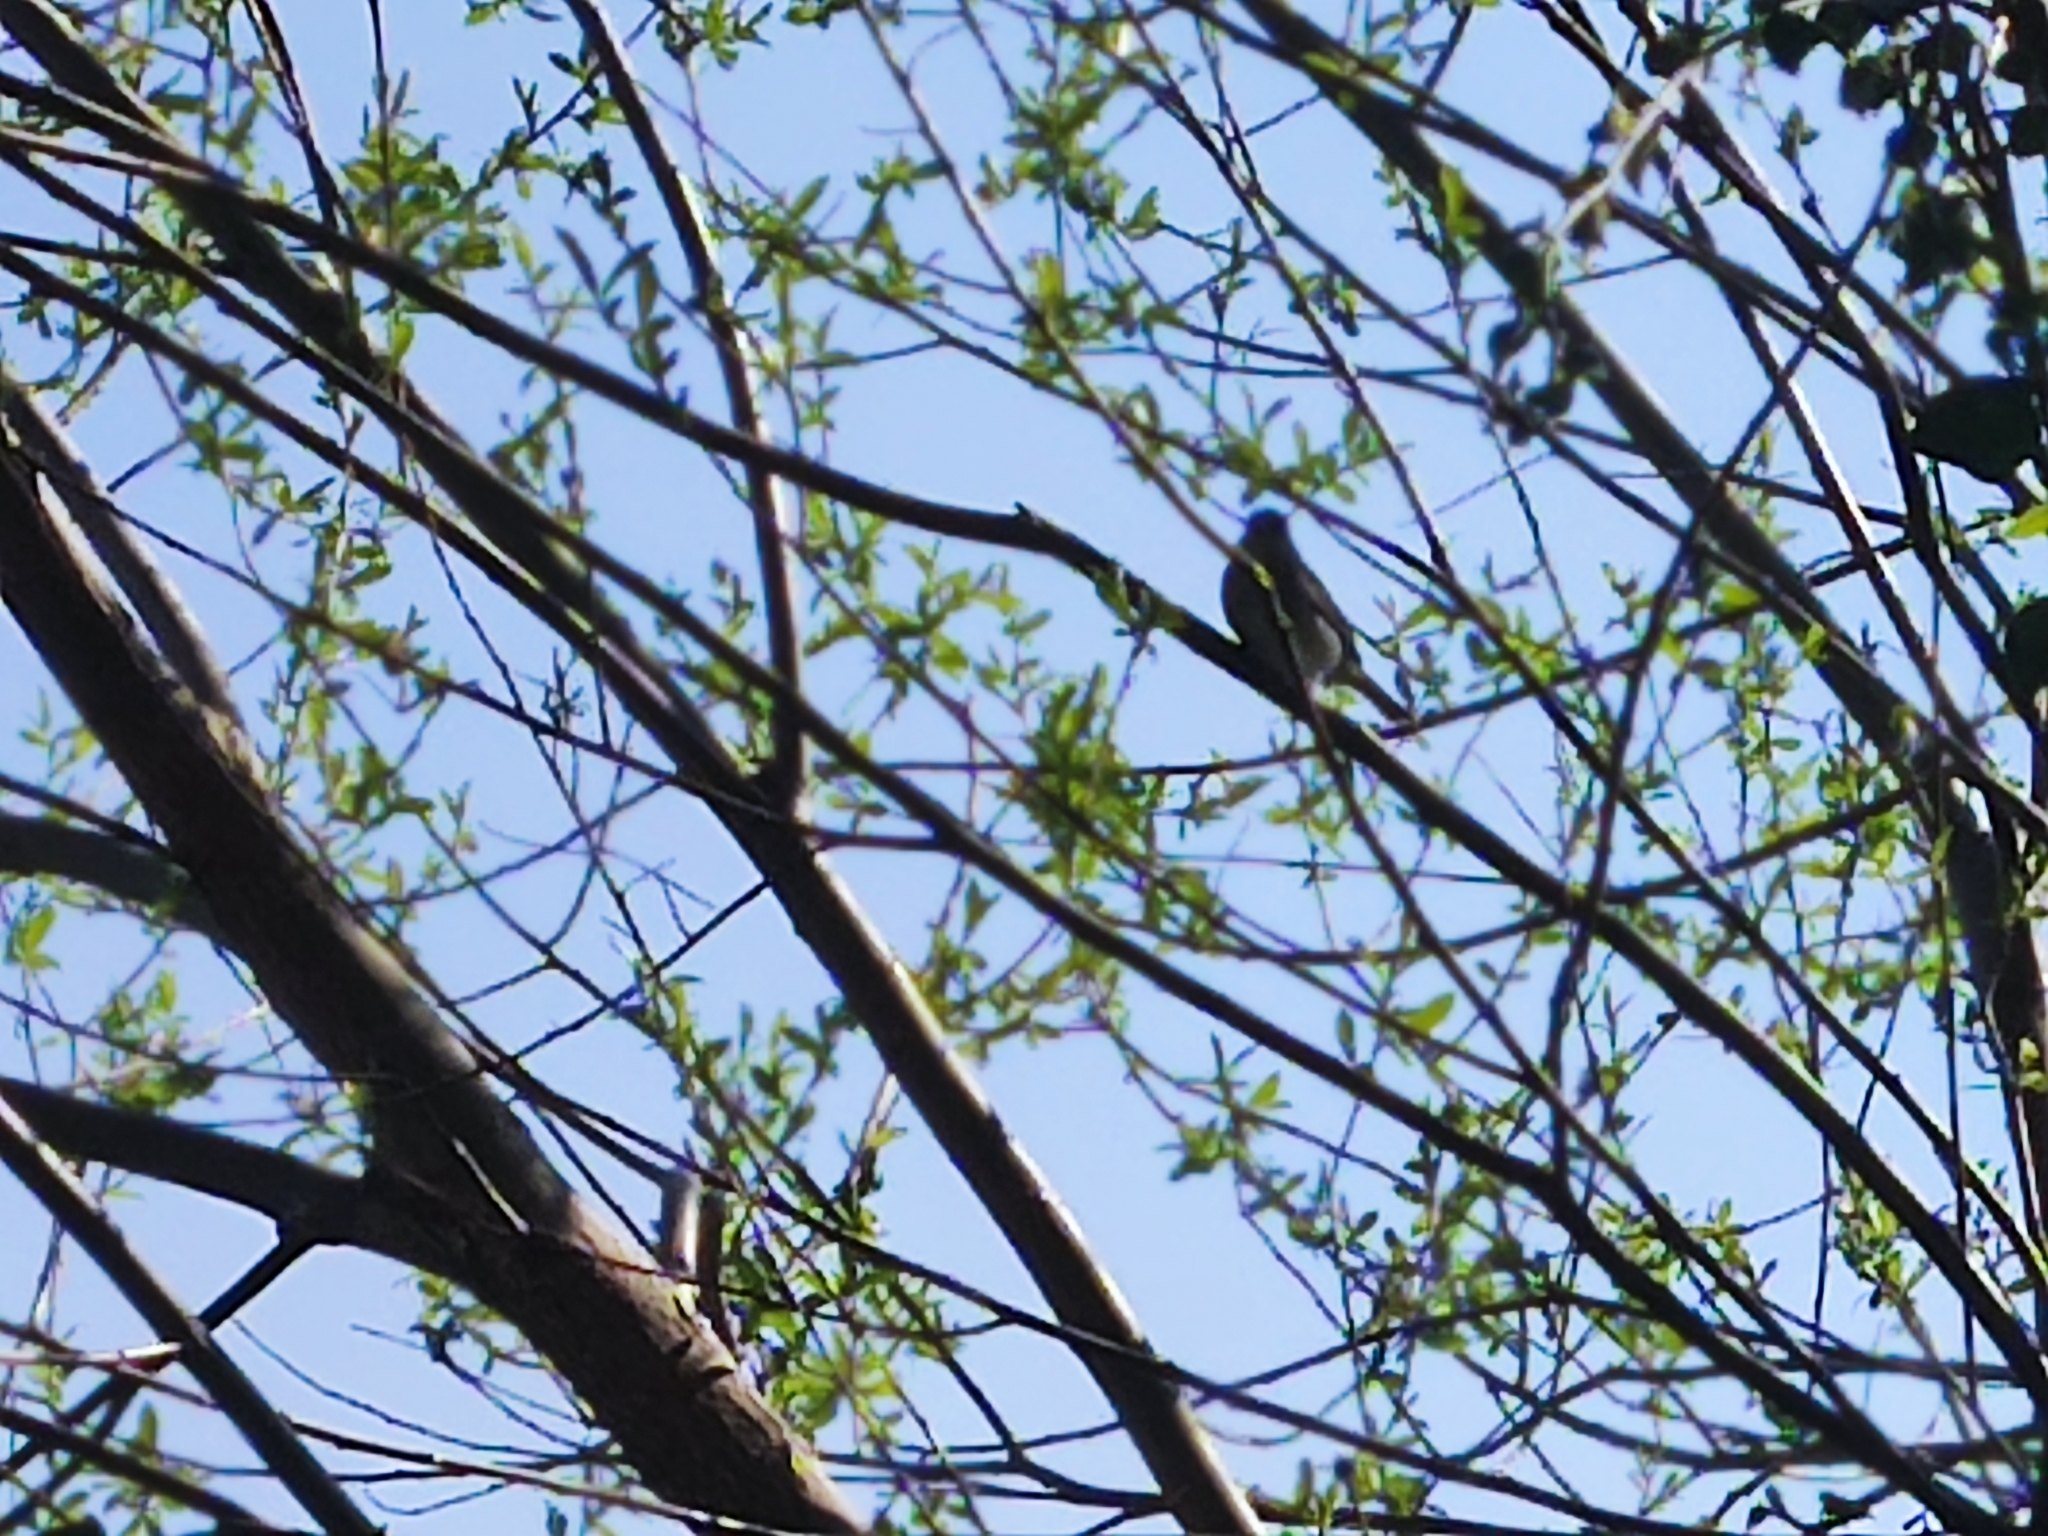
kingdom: Animalia
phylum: Chordata
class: Aves
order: Passeriformes
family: Sylviidae
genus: Sylvia
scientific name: Sylvia atricapilla
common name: Eurasian blackcap
